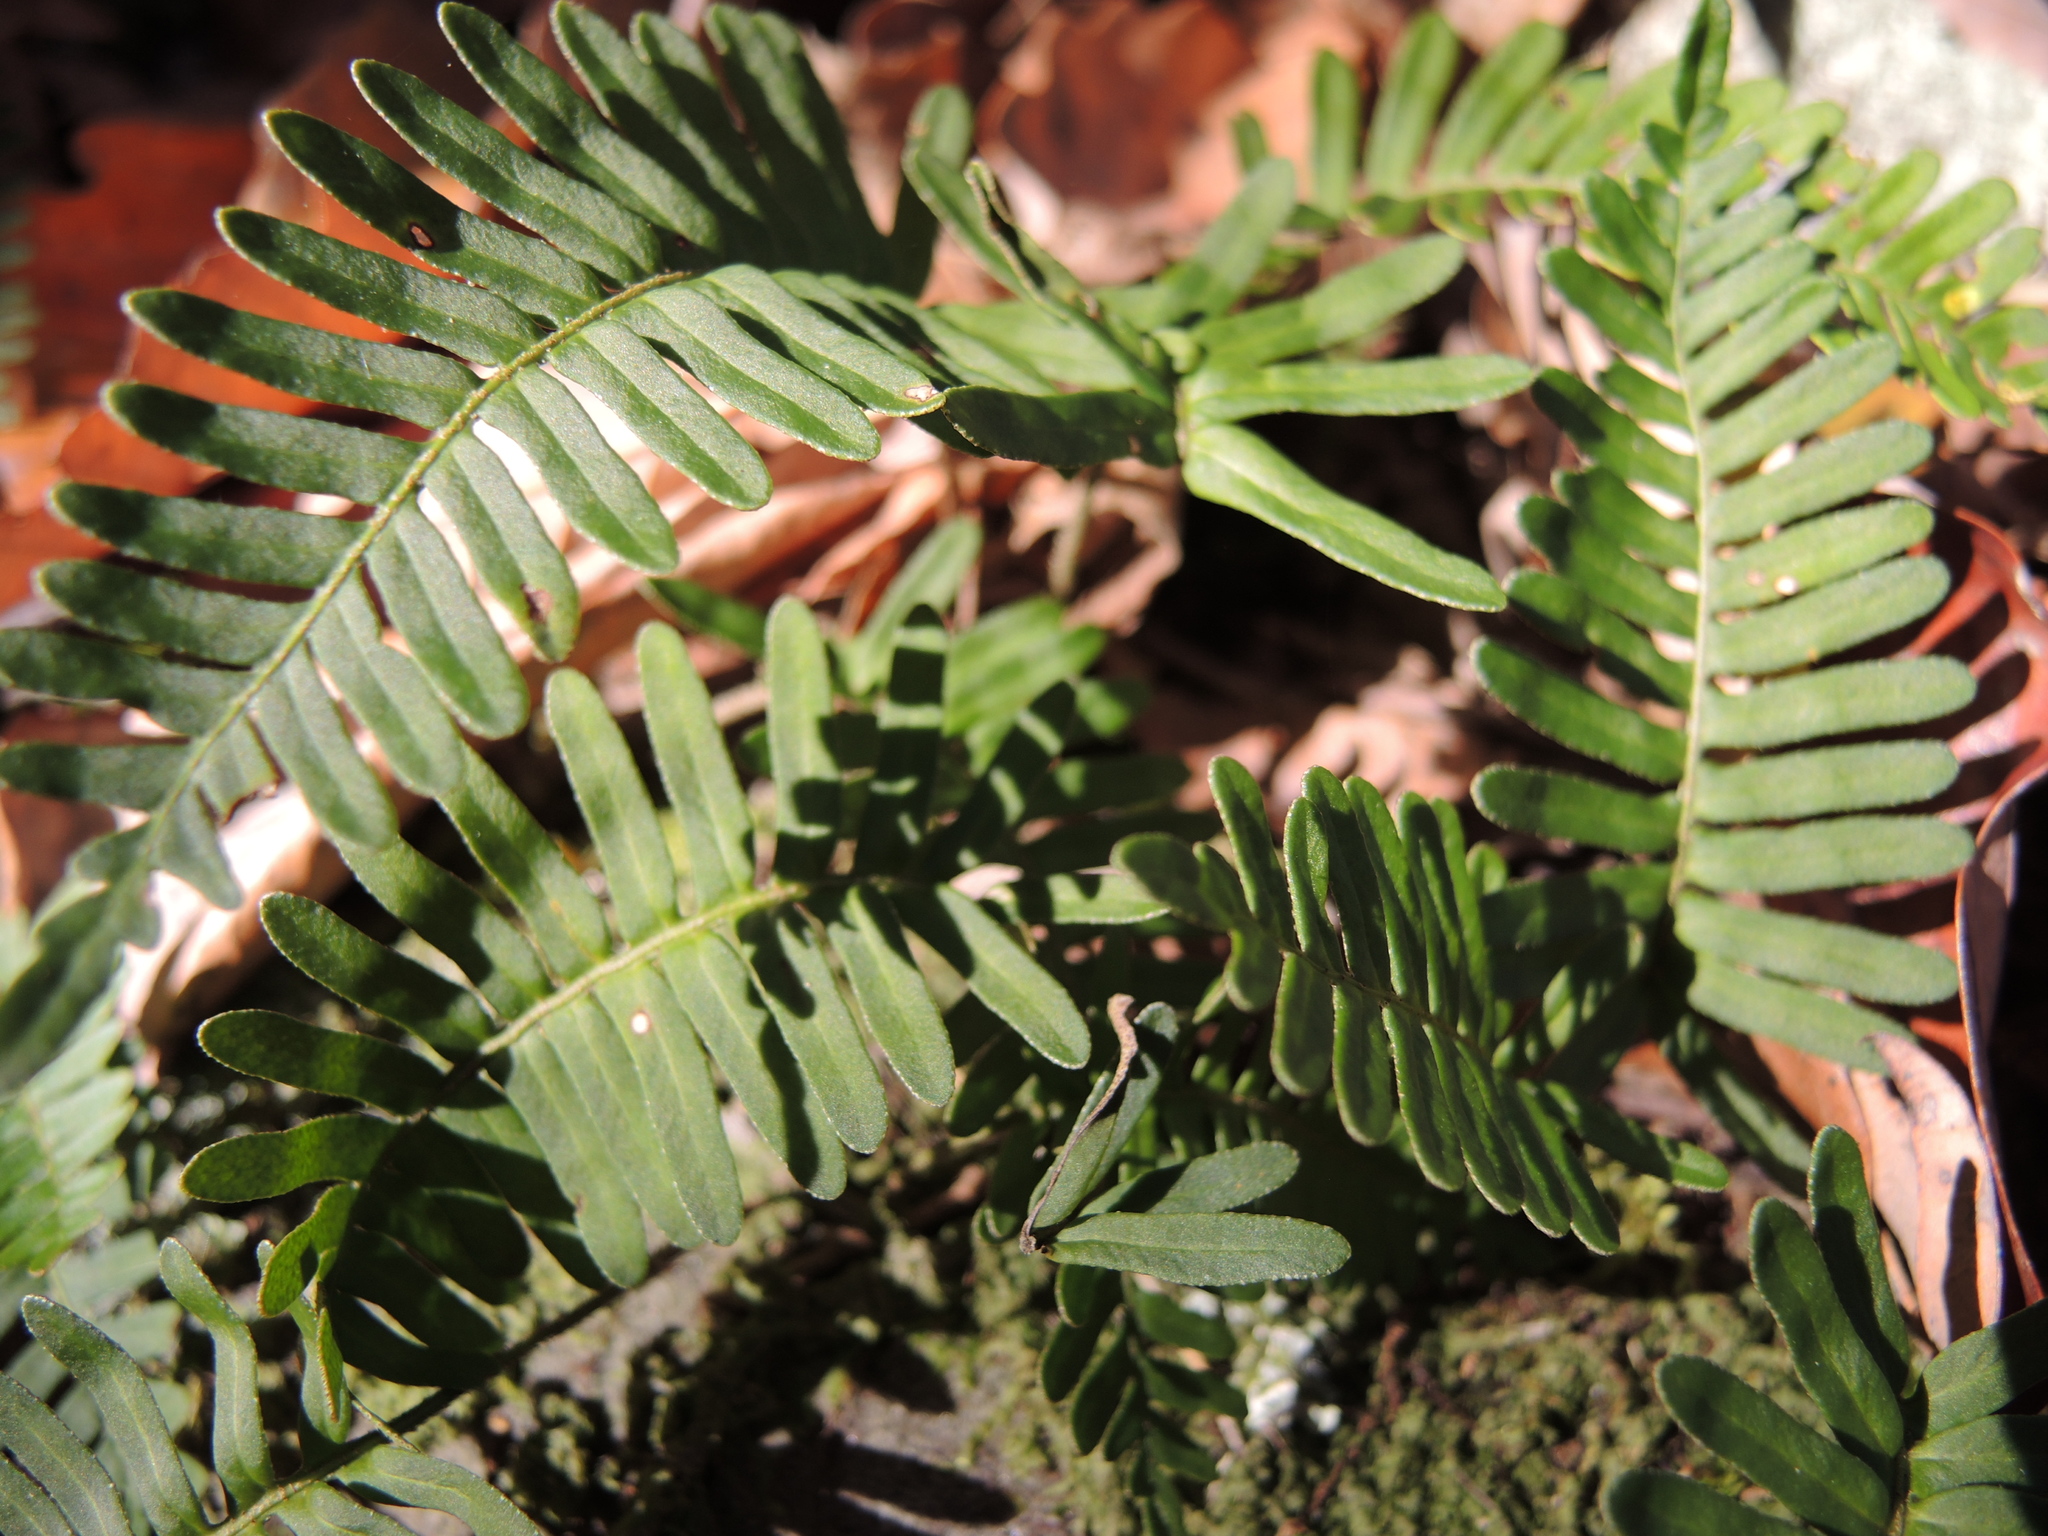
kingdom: Plantae
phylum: Tracheophyta
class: Polypodiopsida
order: Polypodiales
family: Polypodiaceae
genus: Pleopeltis
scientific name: Pleopeltis michauxiana
